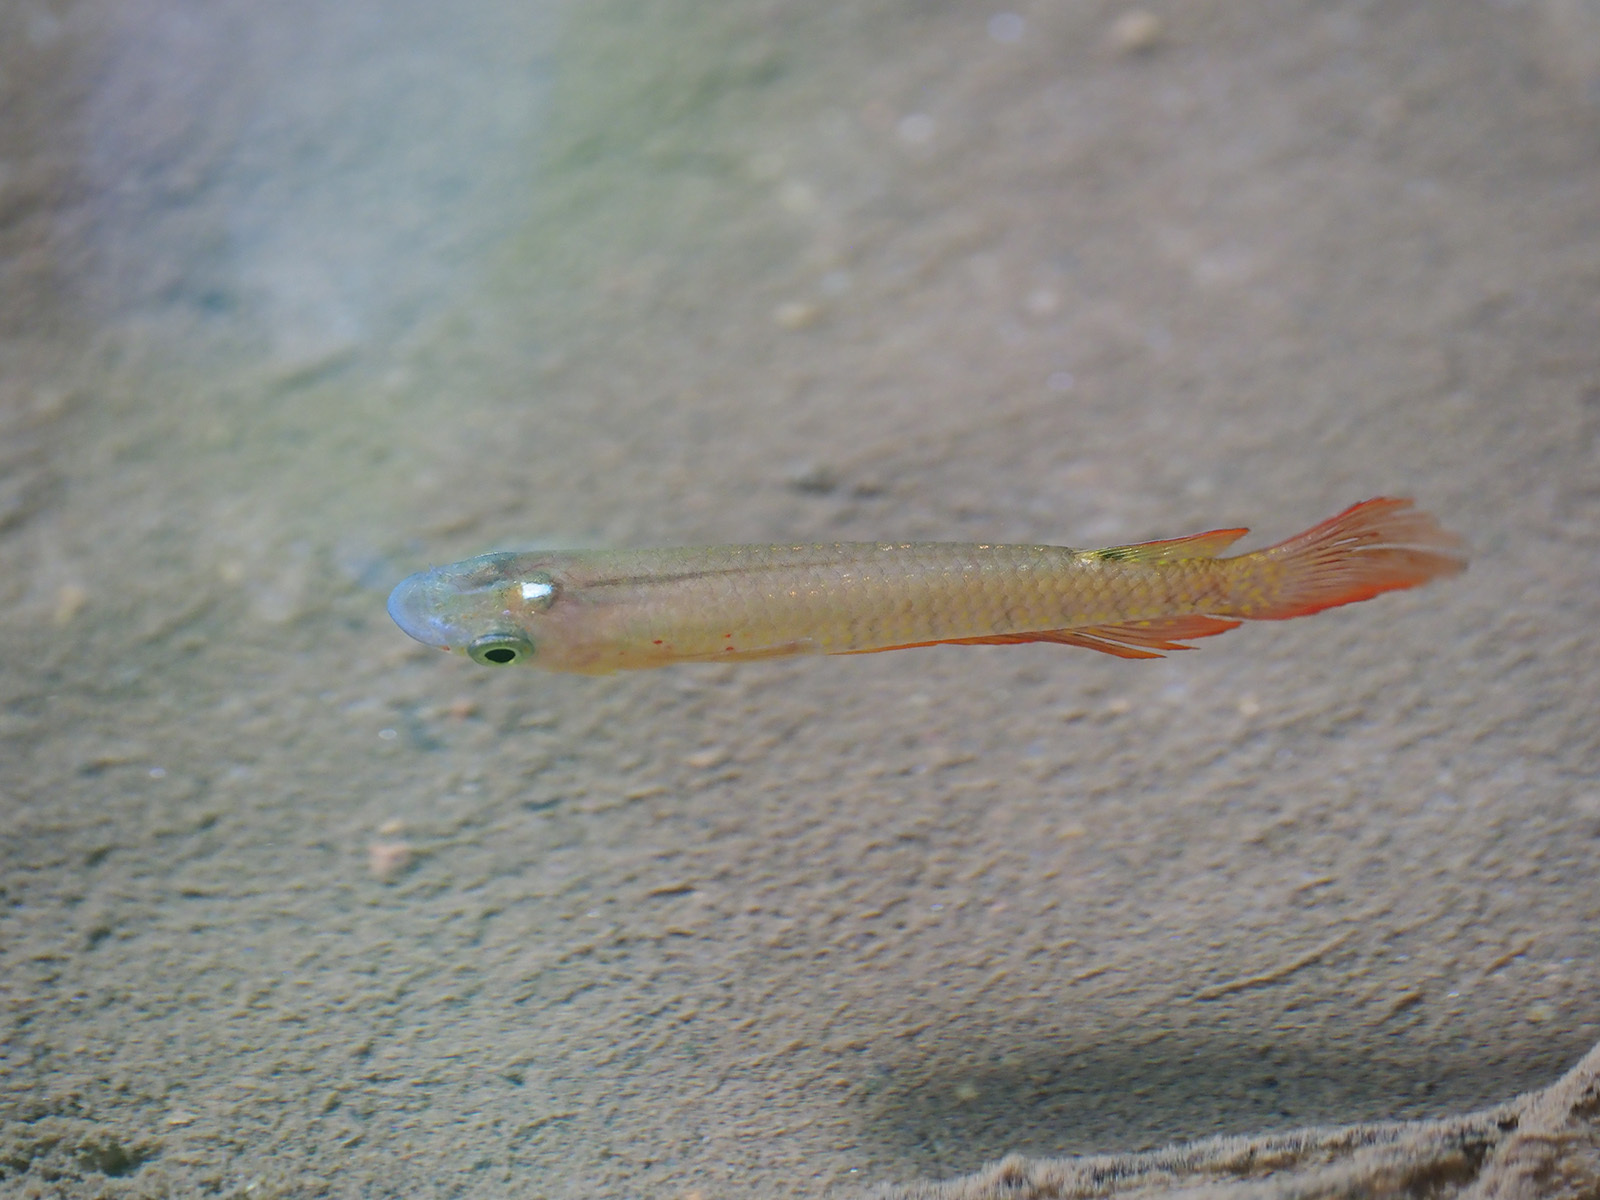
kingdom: Animalia
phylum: Chordata
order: Cyprinodontiformes
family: Aplocheilidae
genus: Aplocheilus
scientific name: Aplocheilus lineatus
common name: Striped panchax
